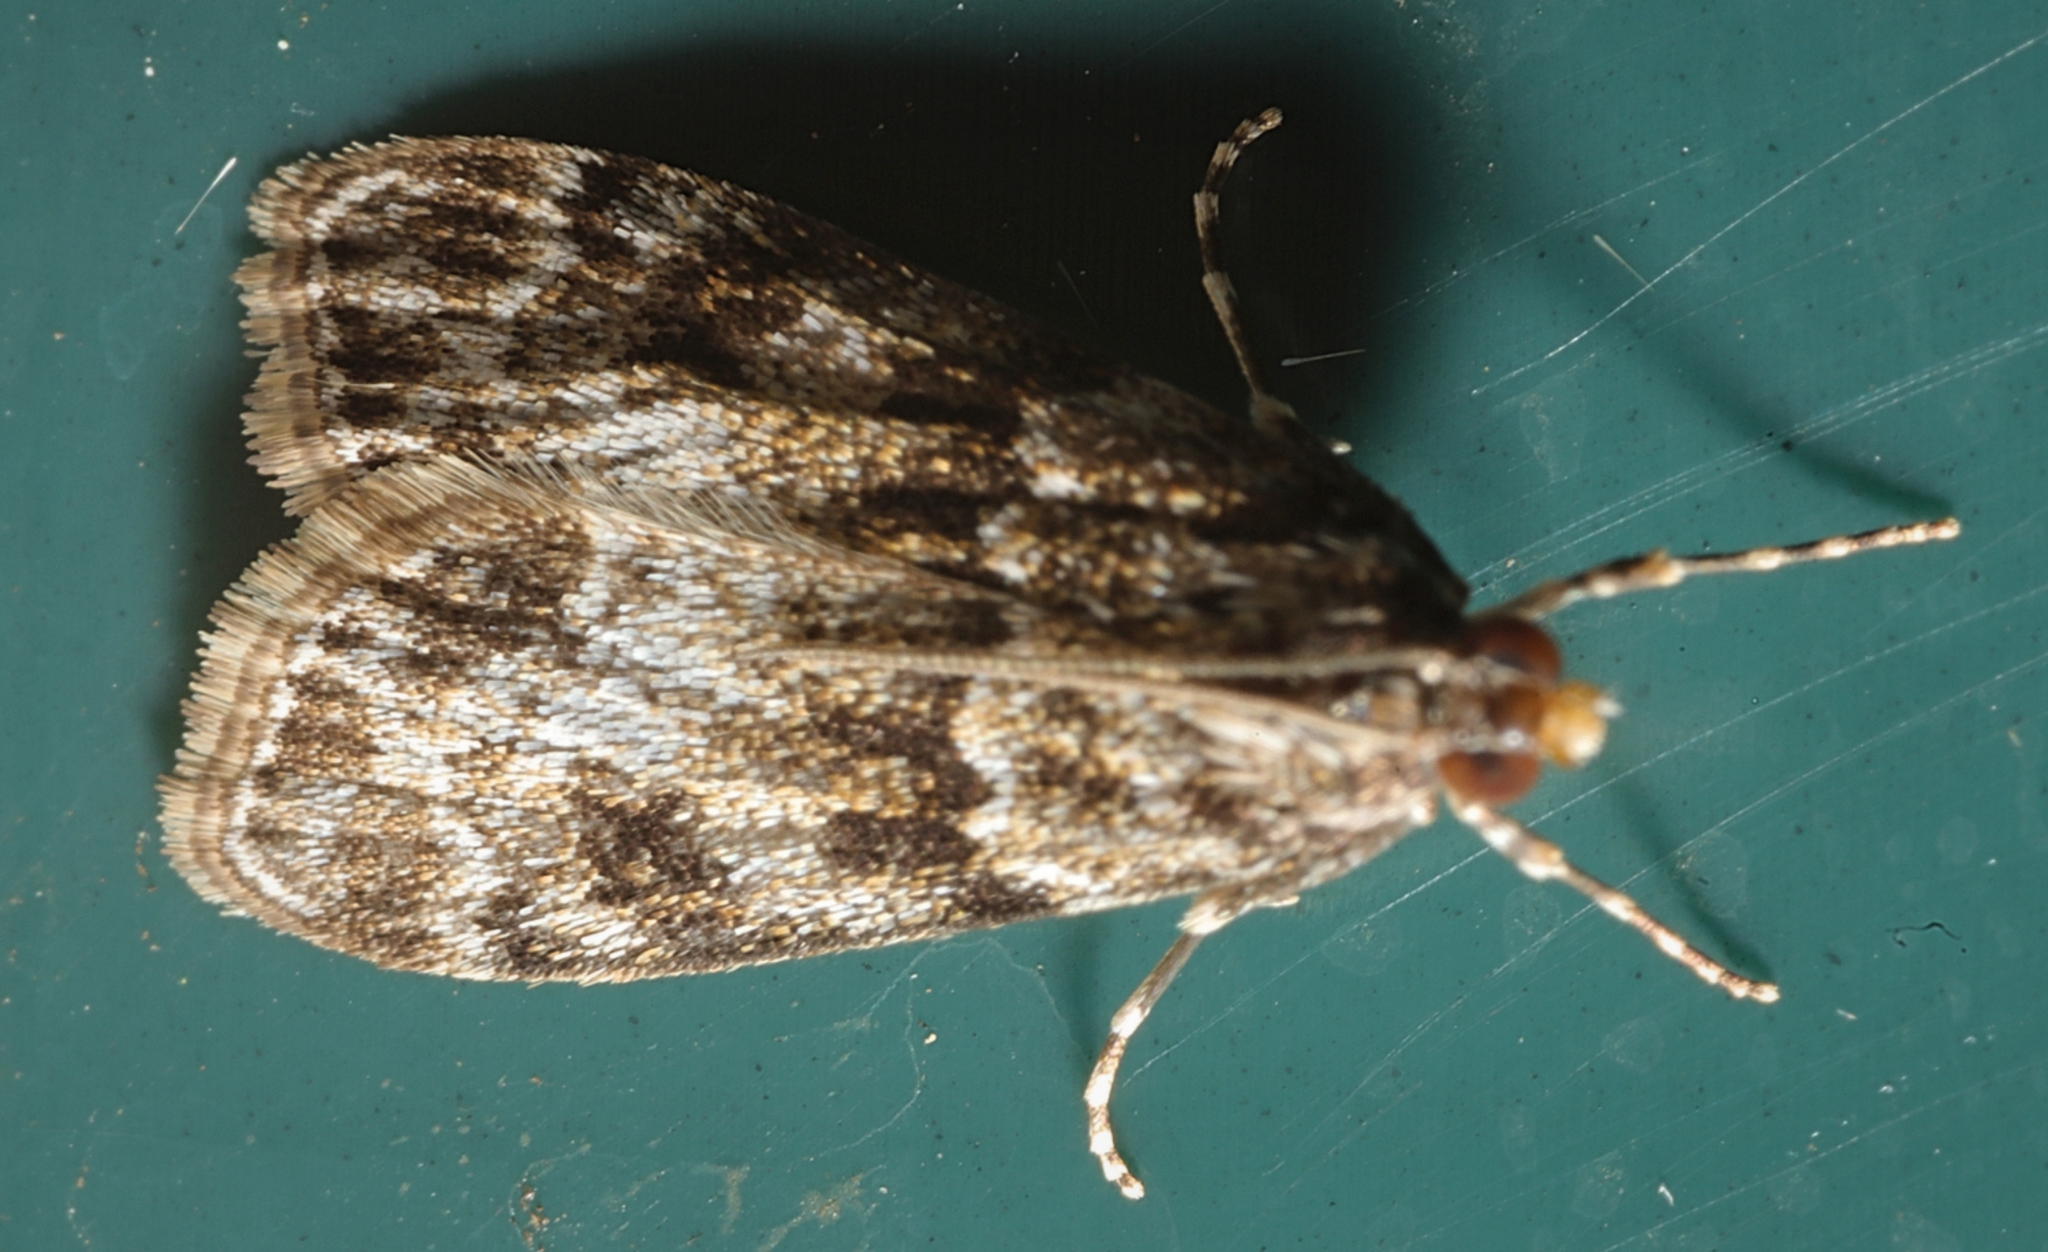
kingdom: Animalia
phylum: Arthropoda
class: Insecta
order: Lepidoptera
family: Crambidae
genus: Eudonia
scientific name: Eudonia mercurella
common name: Small grey
